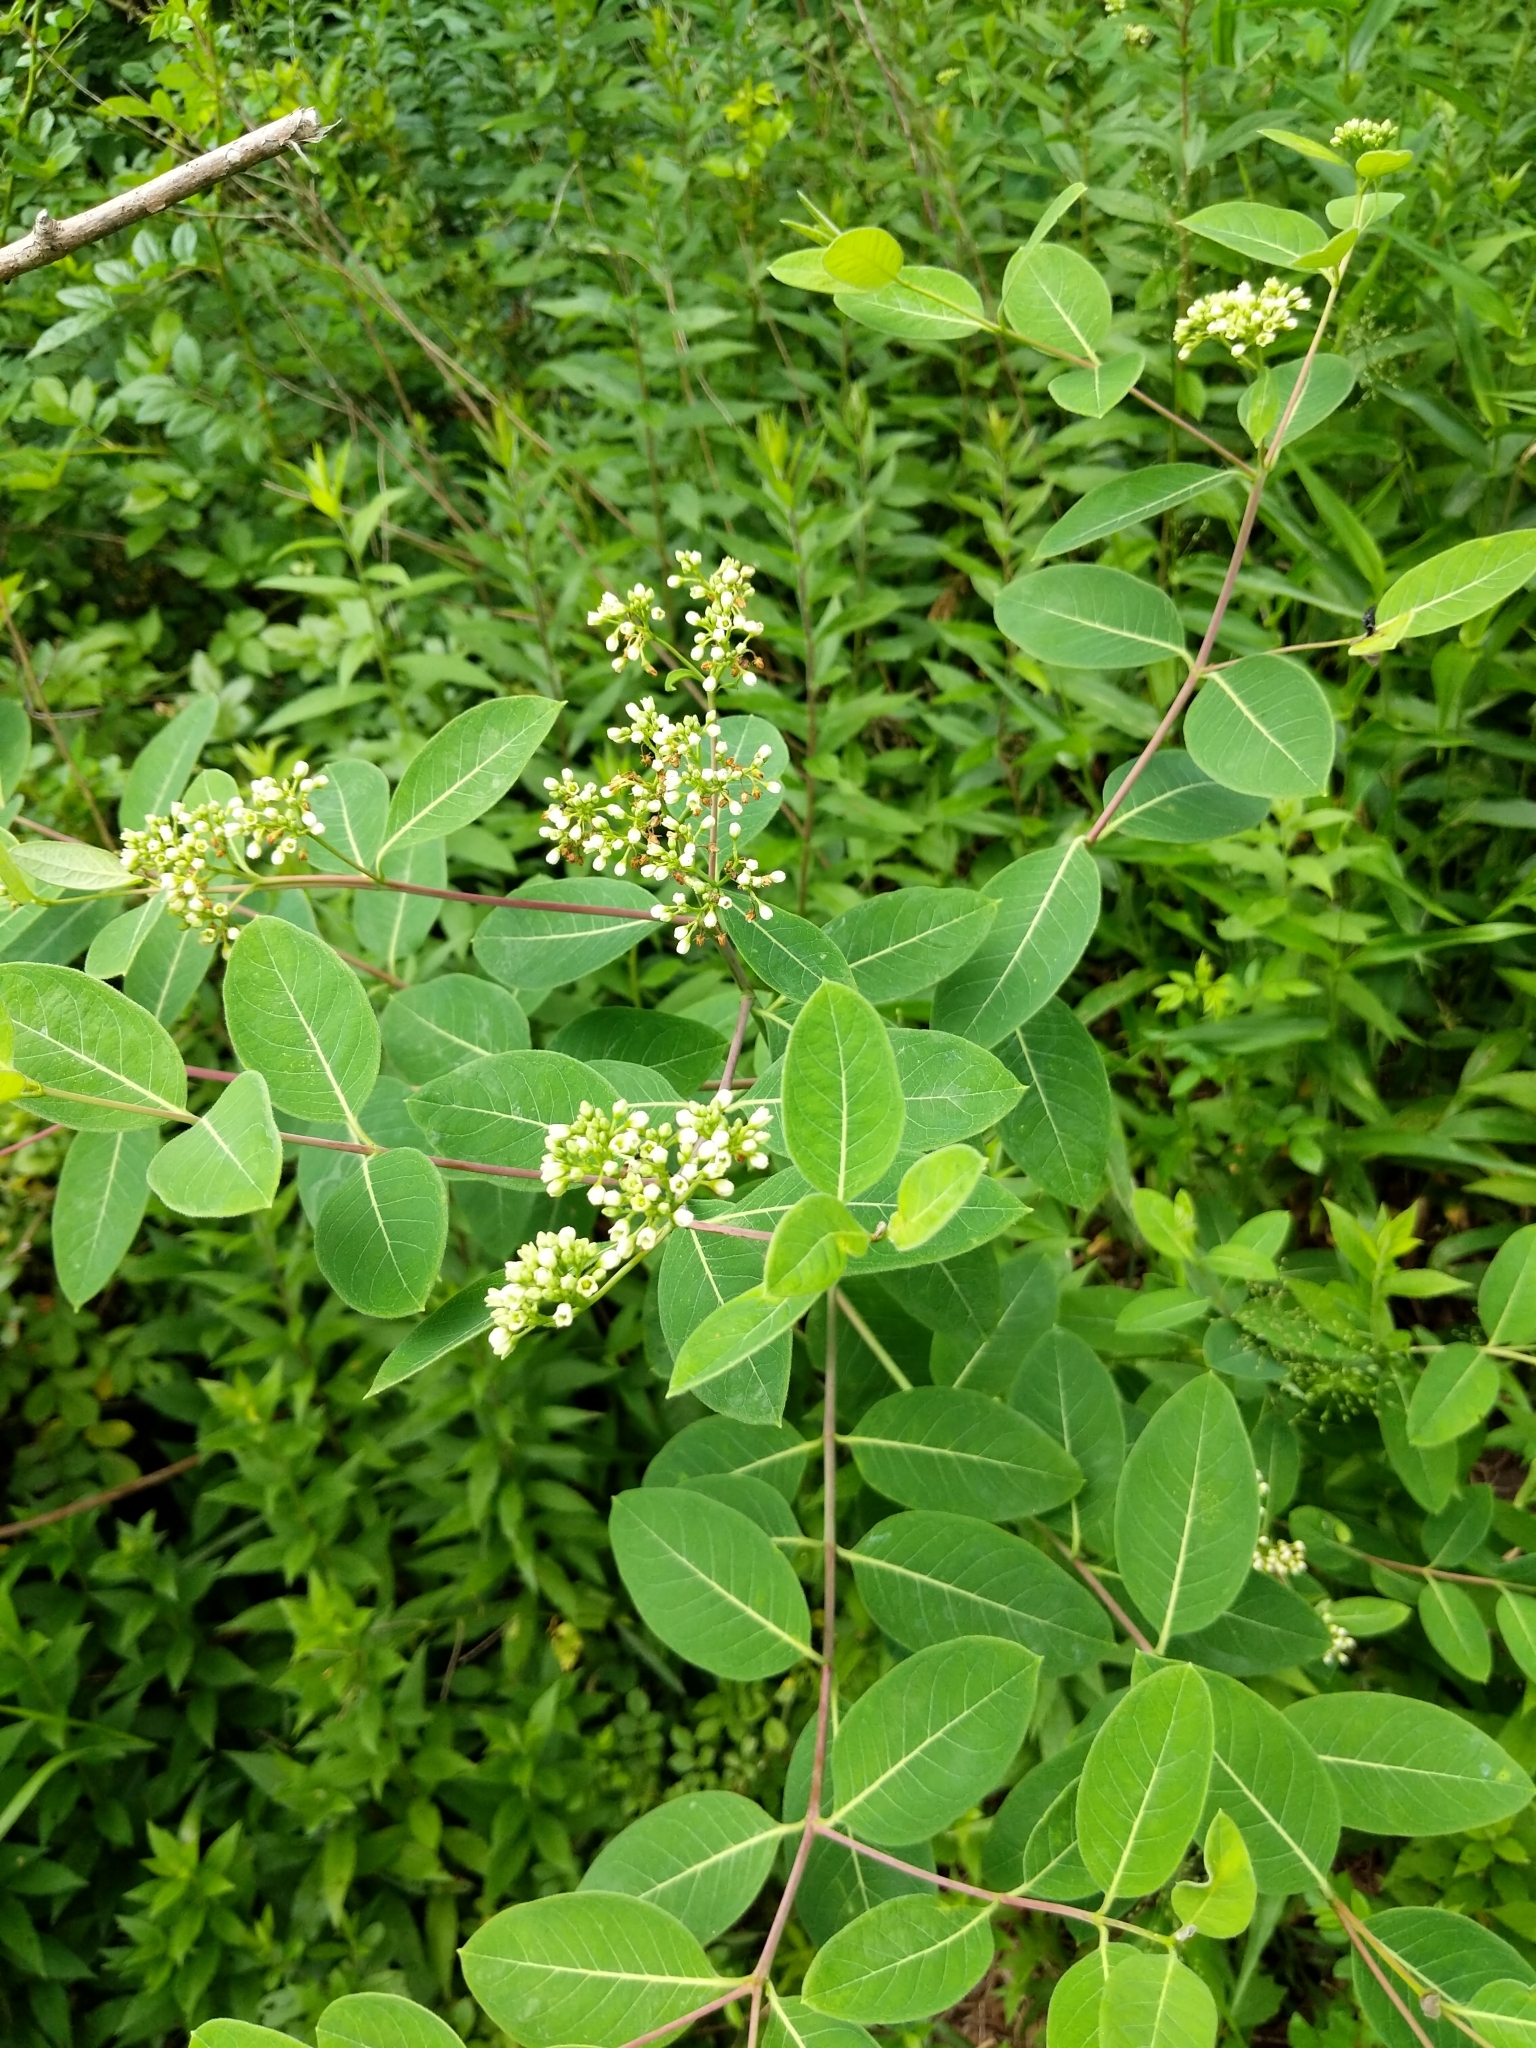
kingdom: Plantae
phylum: Tracheophyta
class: Magnoliopsida
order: Gentianales
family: Apocynaceae
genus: Apocynum
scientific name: Apocynum cannabinum
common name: Hemp dogbane
